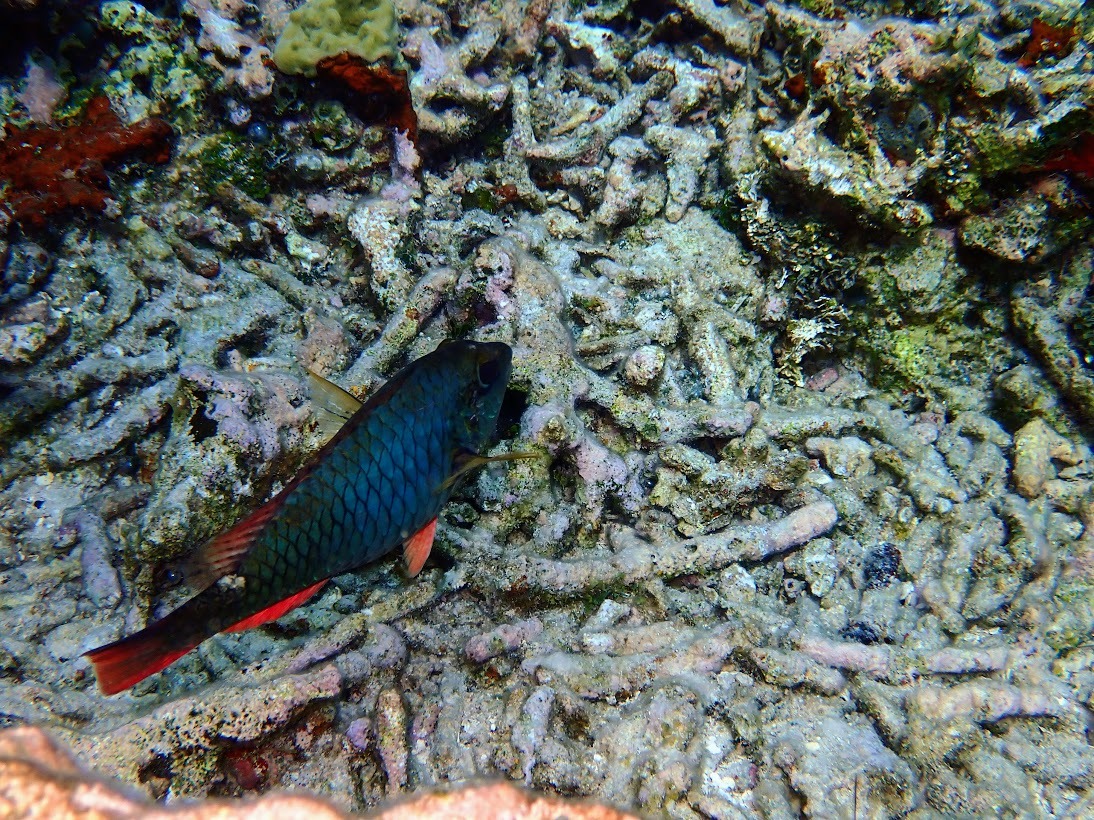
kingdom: Animalia
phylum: Chordata
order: Perciformes
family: Scaridae
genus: Sparisoma
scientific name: Sparisoma aurofrenatum
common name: Redband parrotfish
